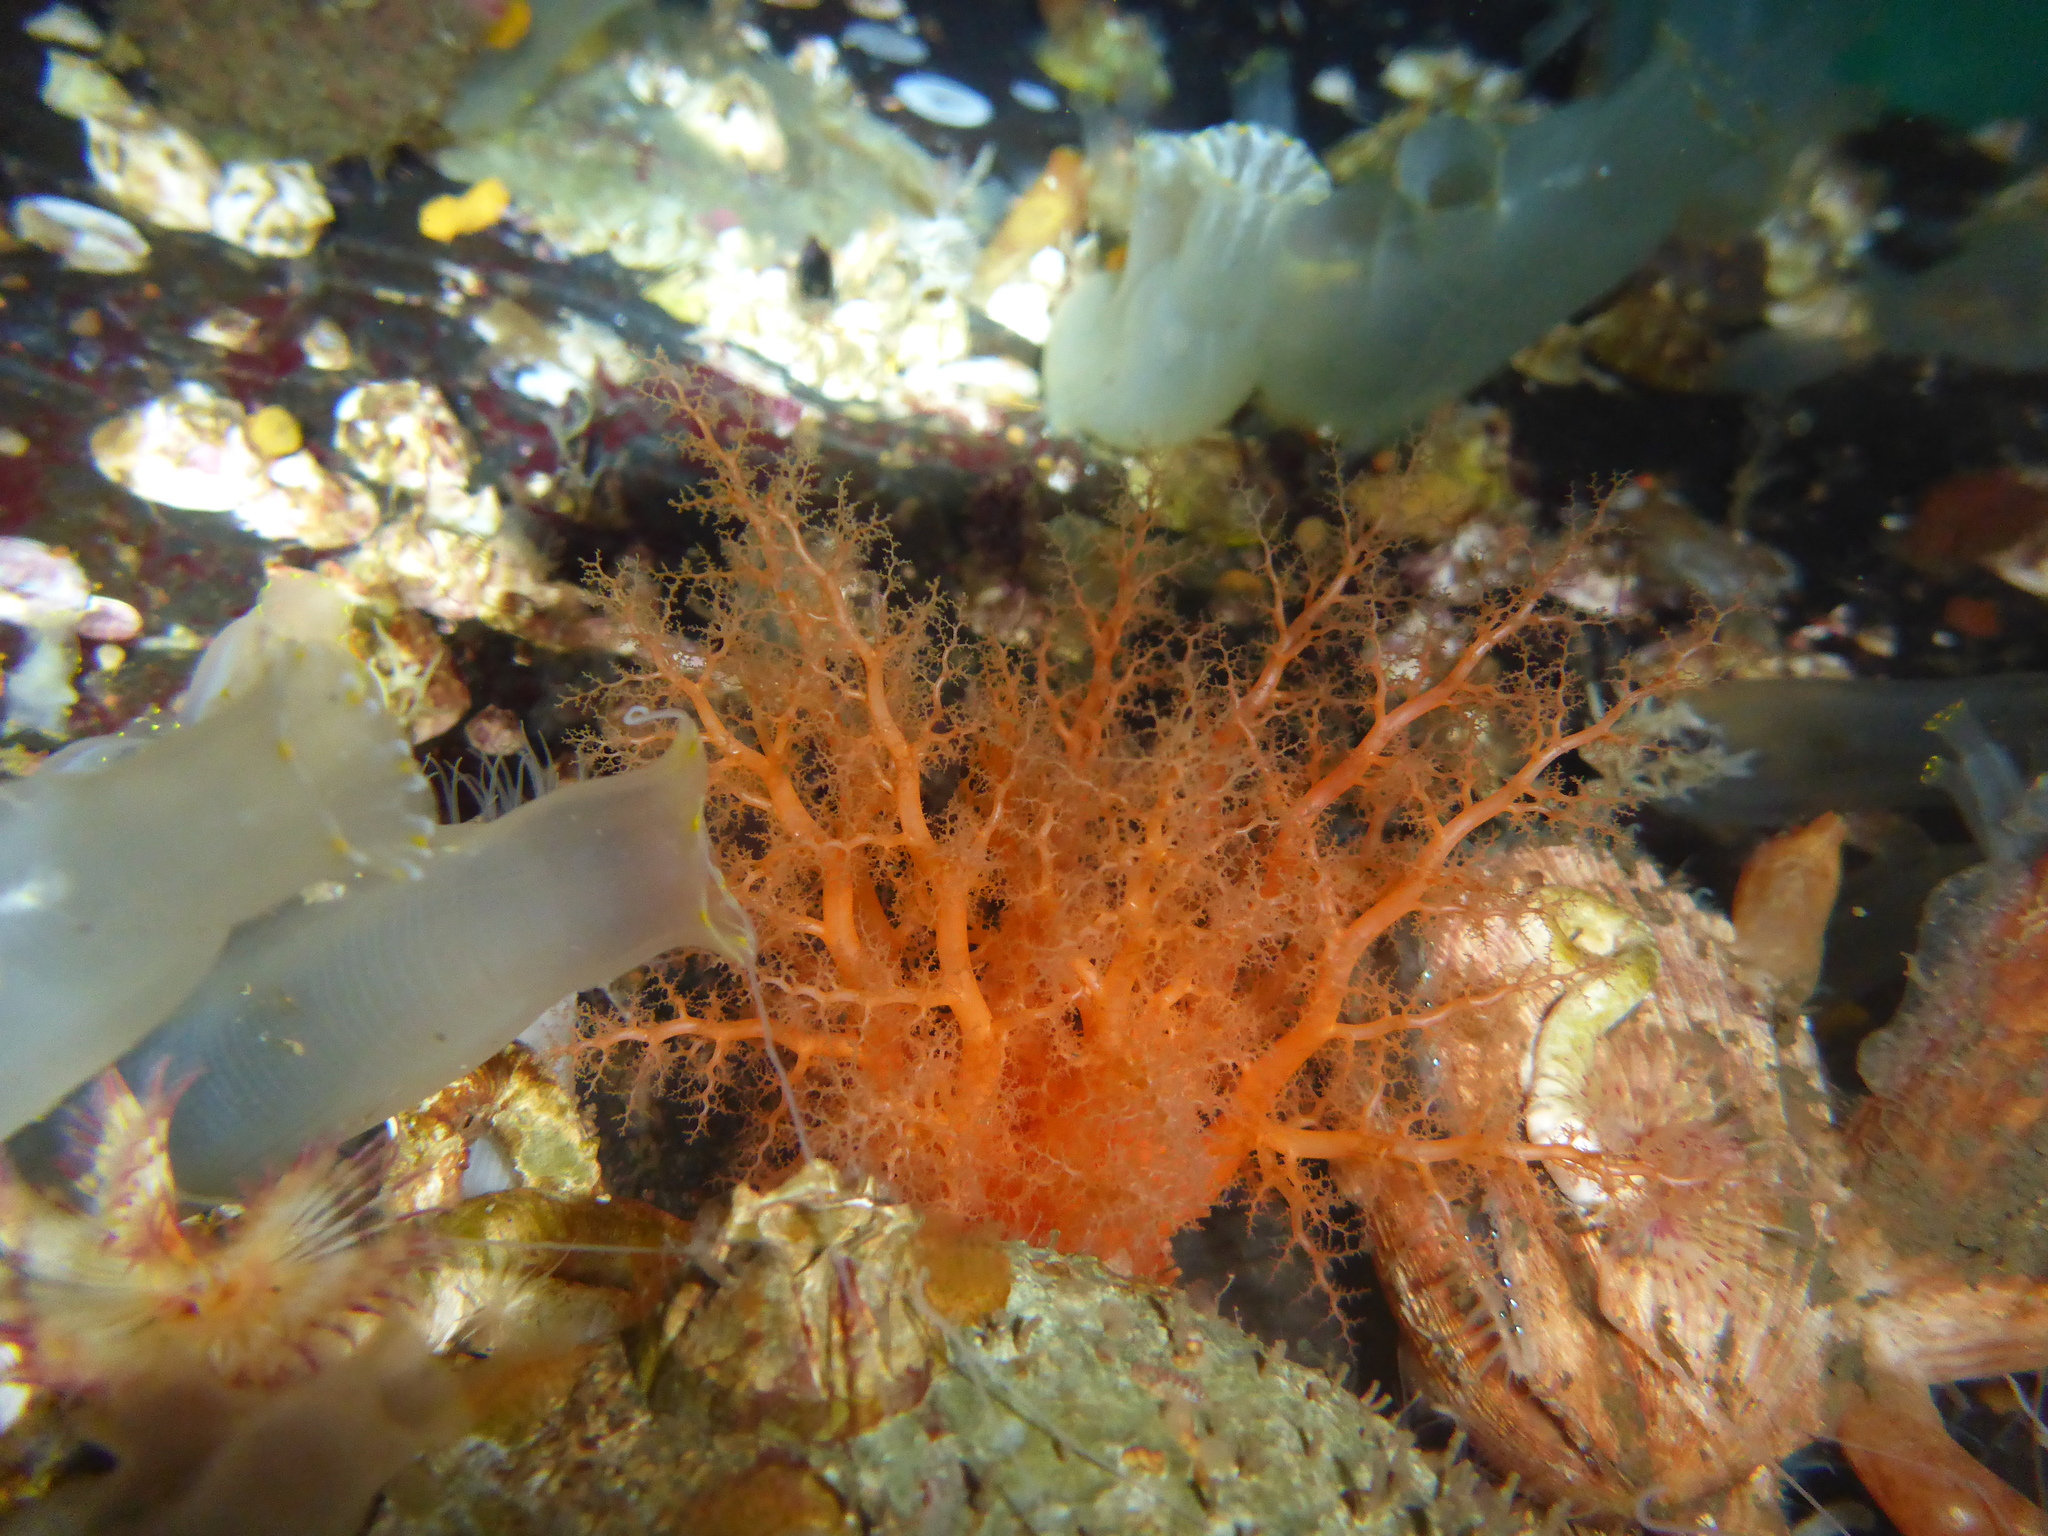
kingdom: Animalia
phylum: Echinodermata
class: Holothuroidea
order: Dendrochirotida
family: Cucumariidae
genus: Cucumaria
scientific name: Cucumaria miniata
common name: Orange sea cucumber
